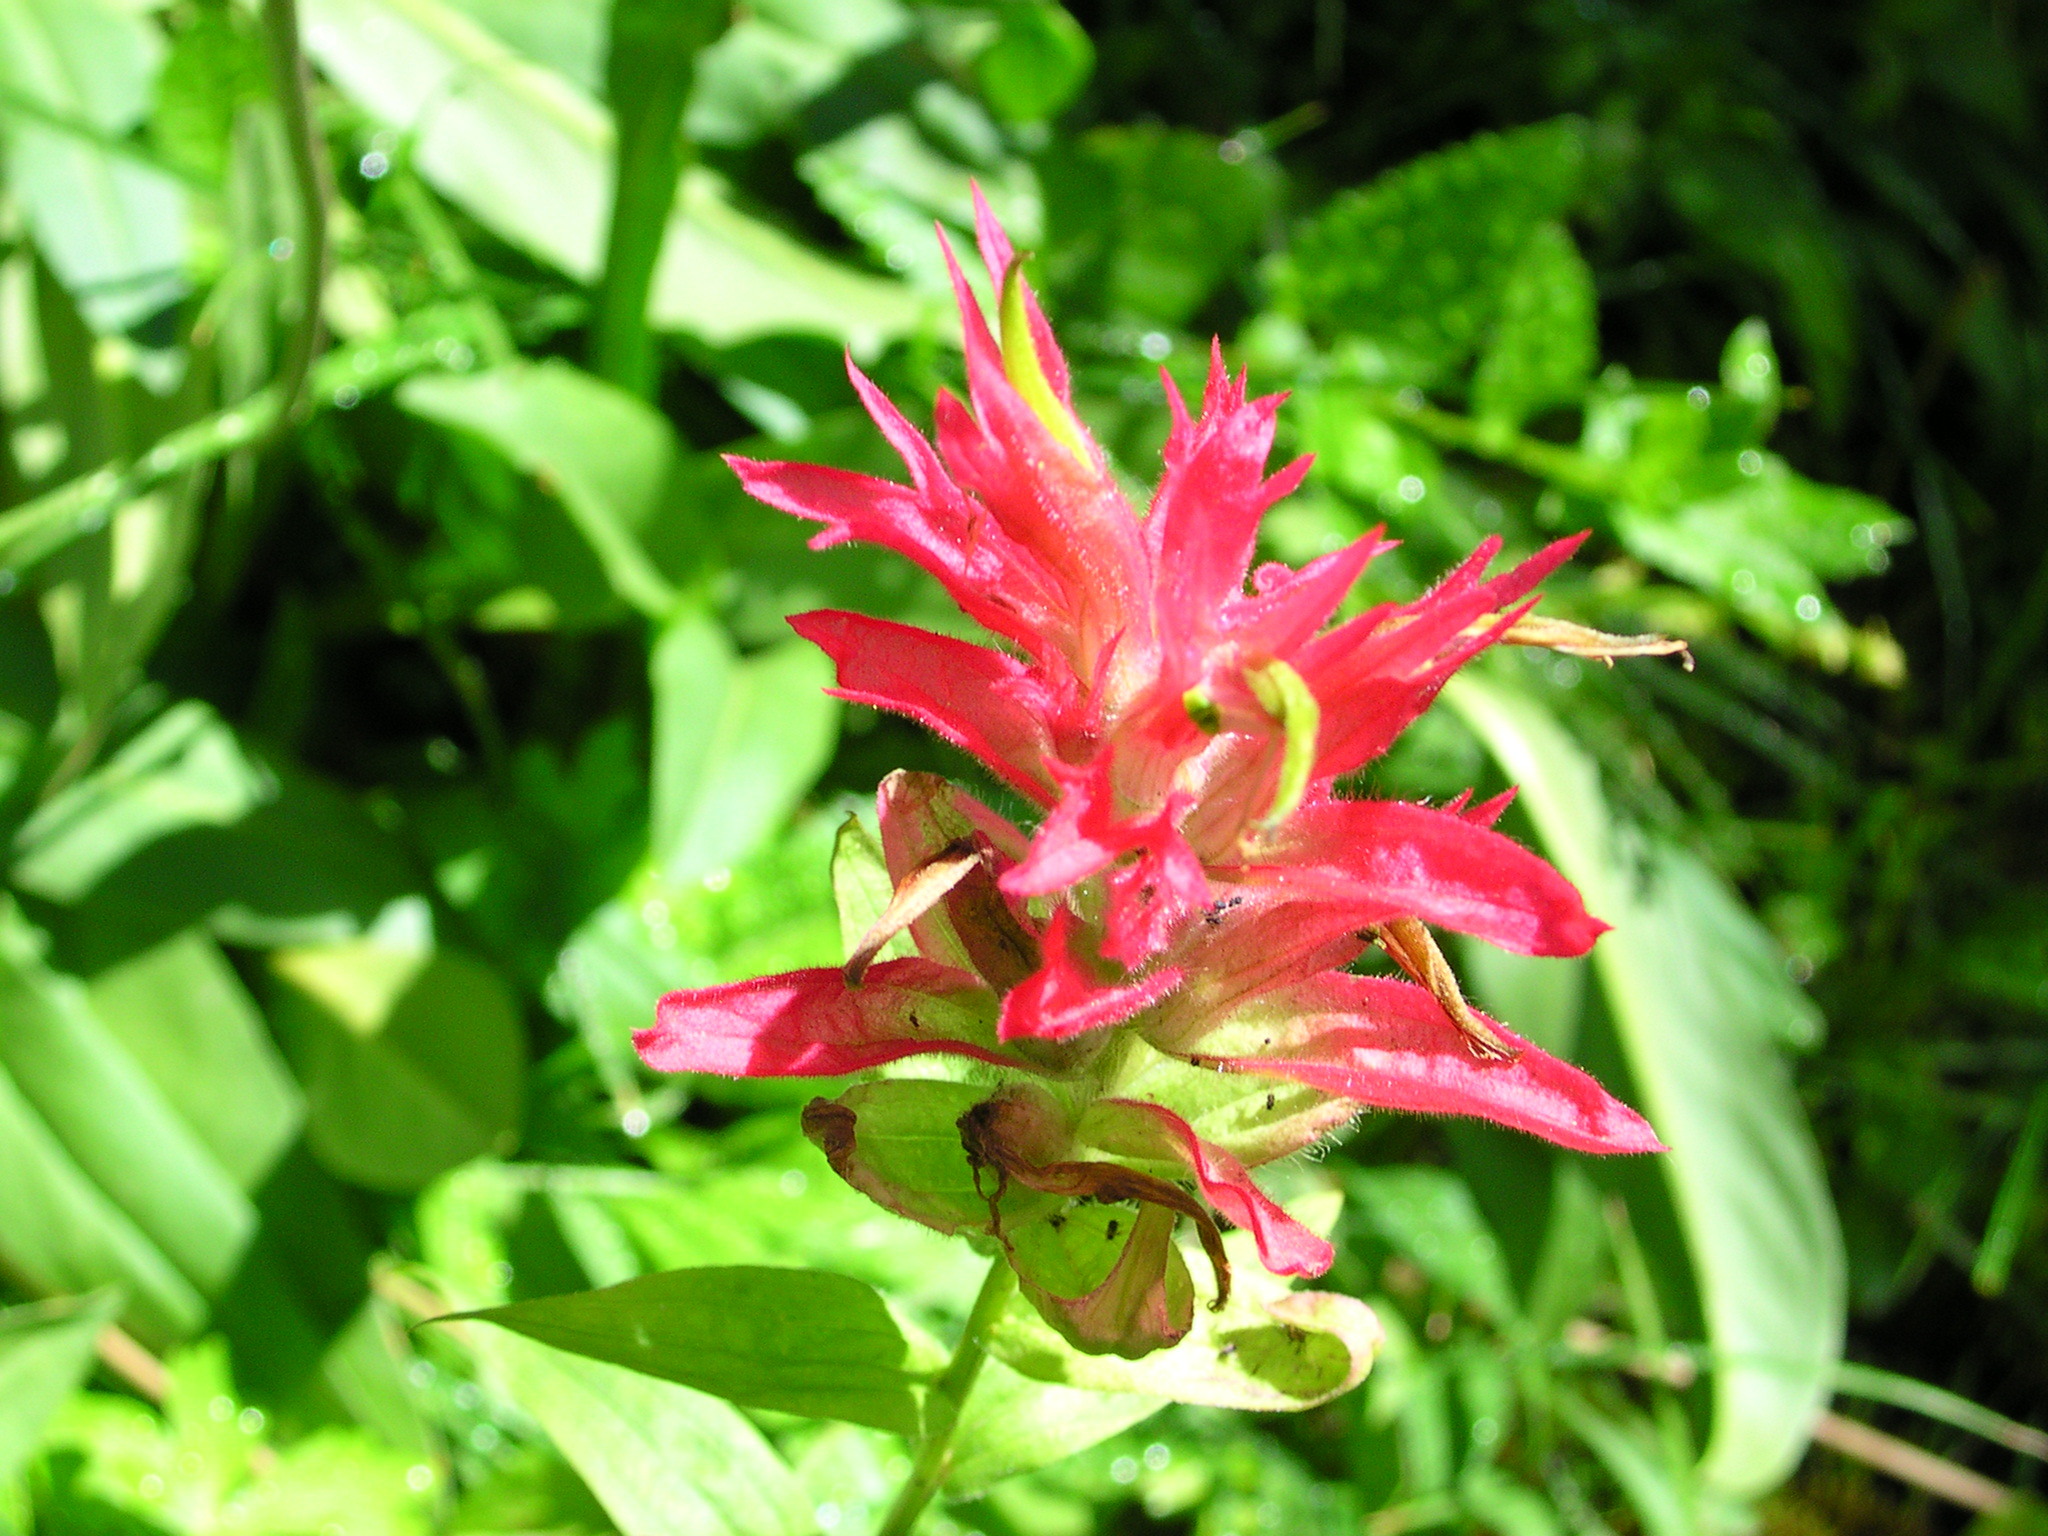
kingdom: Plantae
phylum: Tracheophyta
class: Magnoliopsida
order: Lamiales
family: Orobanchaceae
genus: Castilleja
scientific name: Castilleja miniata
